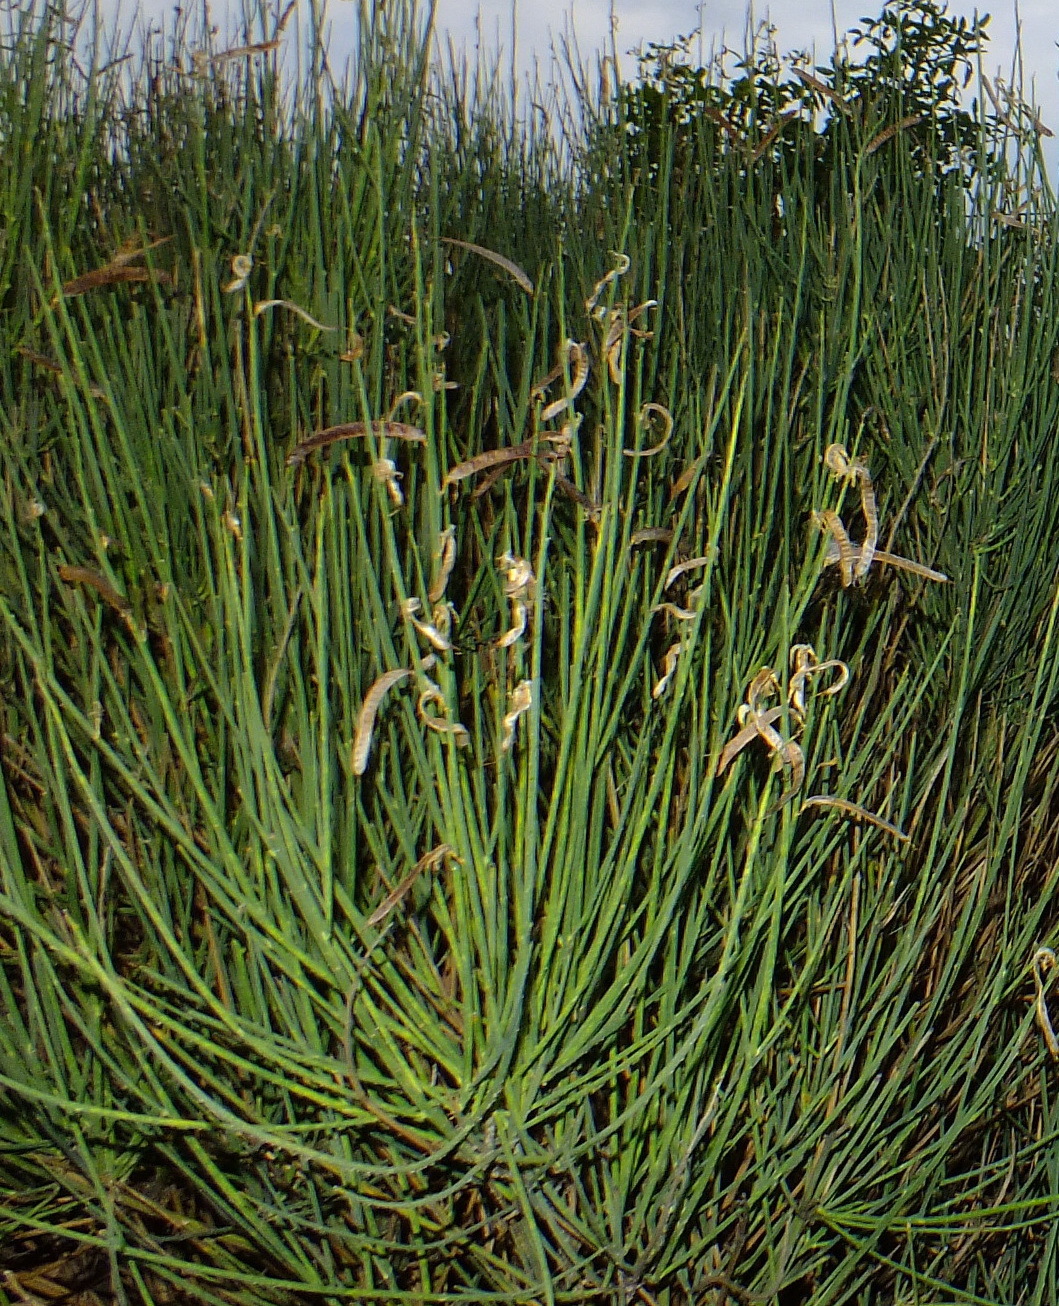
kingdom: Plantae
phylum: Tracheophyta
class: Magnoliopsida
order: Fabales
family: Fabaceae
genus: Spartium
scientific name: Spartium junceum
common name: Spanish broom
